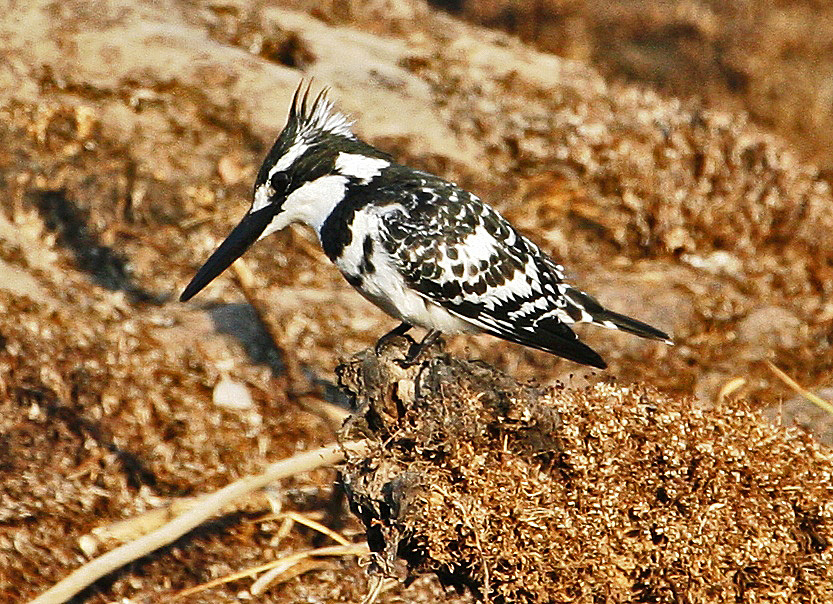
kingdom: Animalia
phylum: Chordata
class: Aves
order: Coraciiformes
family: Alcedinidae
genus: Ceryle
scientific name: Ceryle rudis
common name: Pied kingfisher
